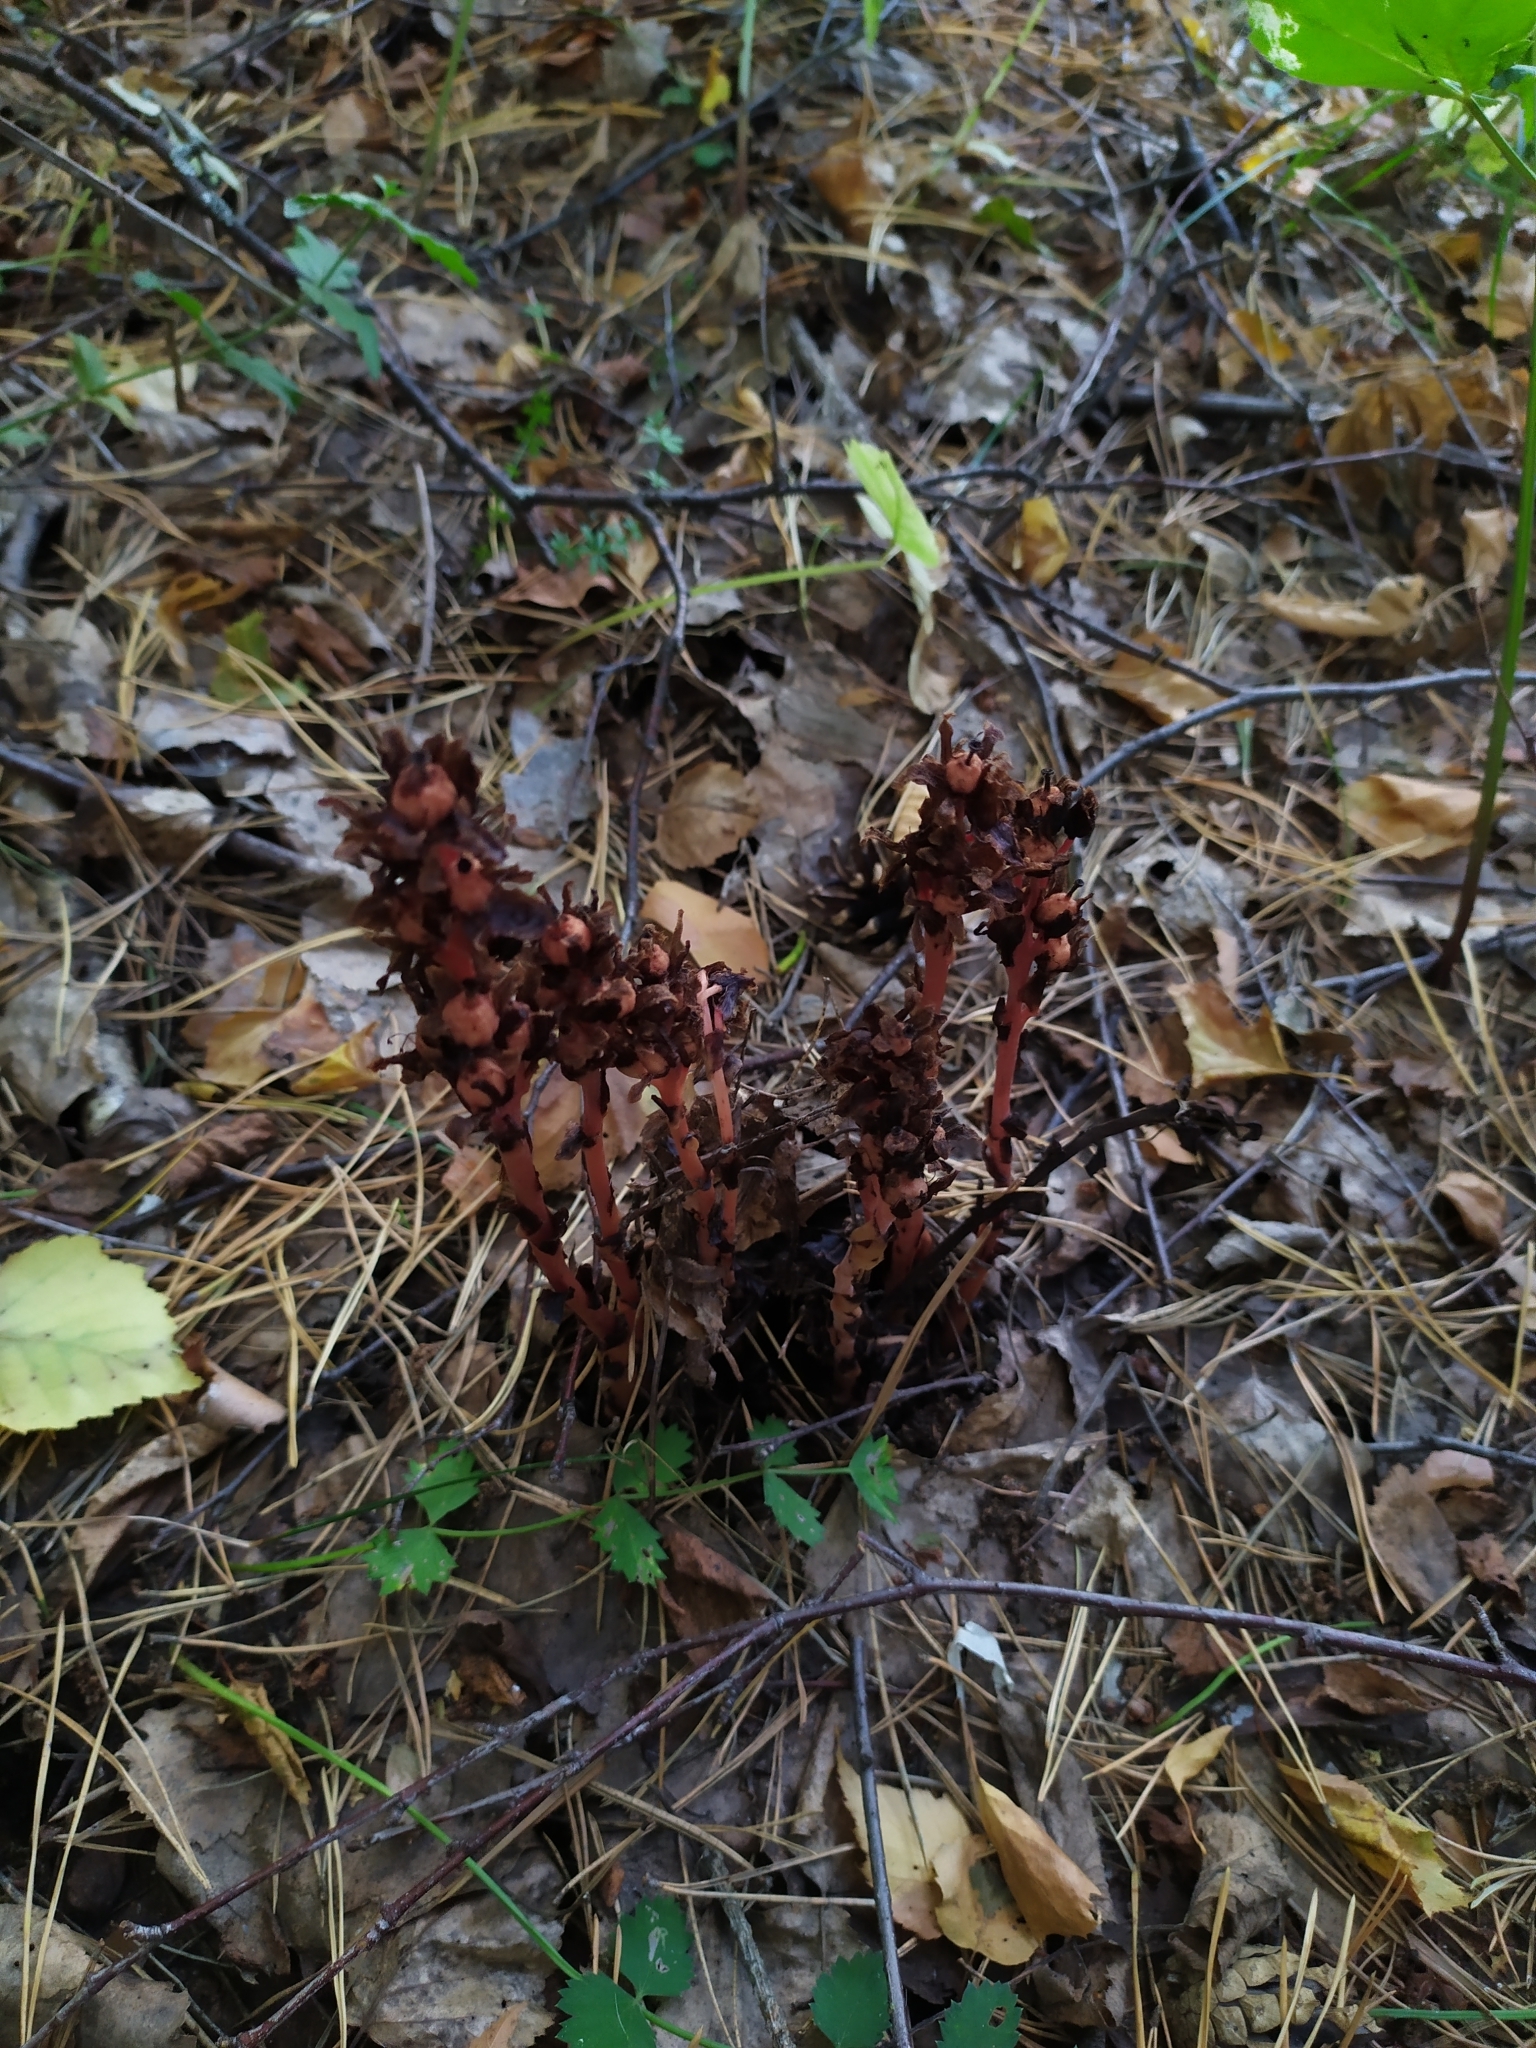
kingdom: Plantae
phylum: Tracheophyta
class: Magnoliopsida
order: Ericales
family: Ericaceae
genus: Hypopitys
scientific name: Hypopitys monotropa
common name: Yellow bird's-nest
